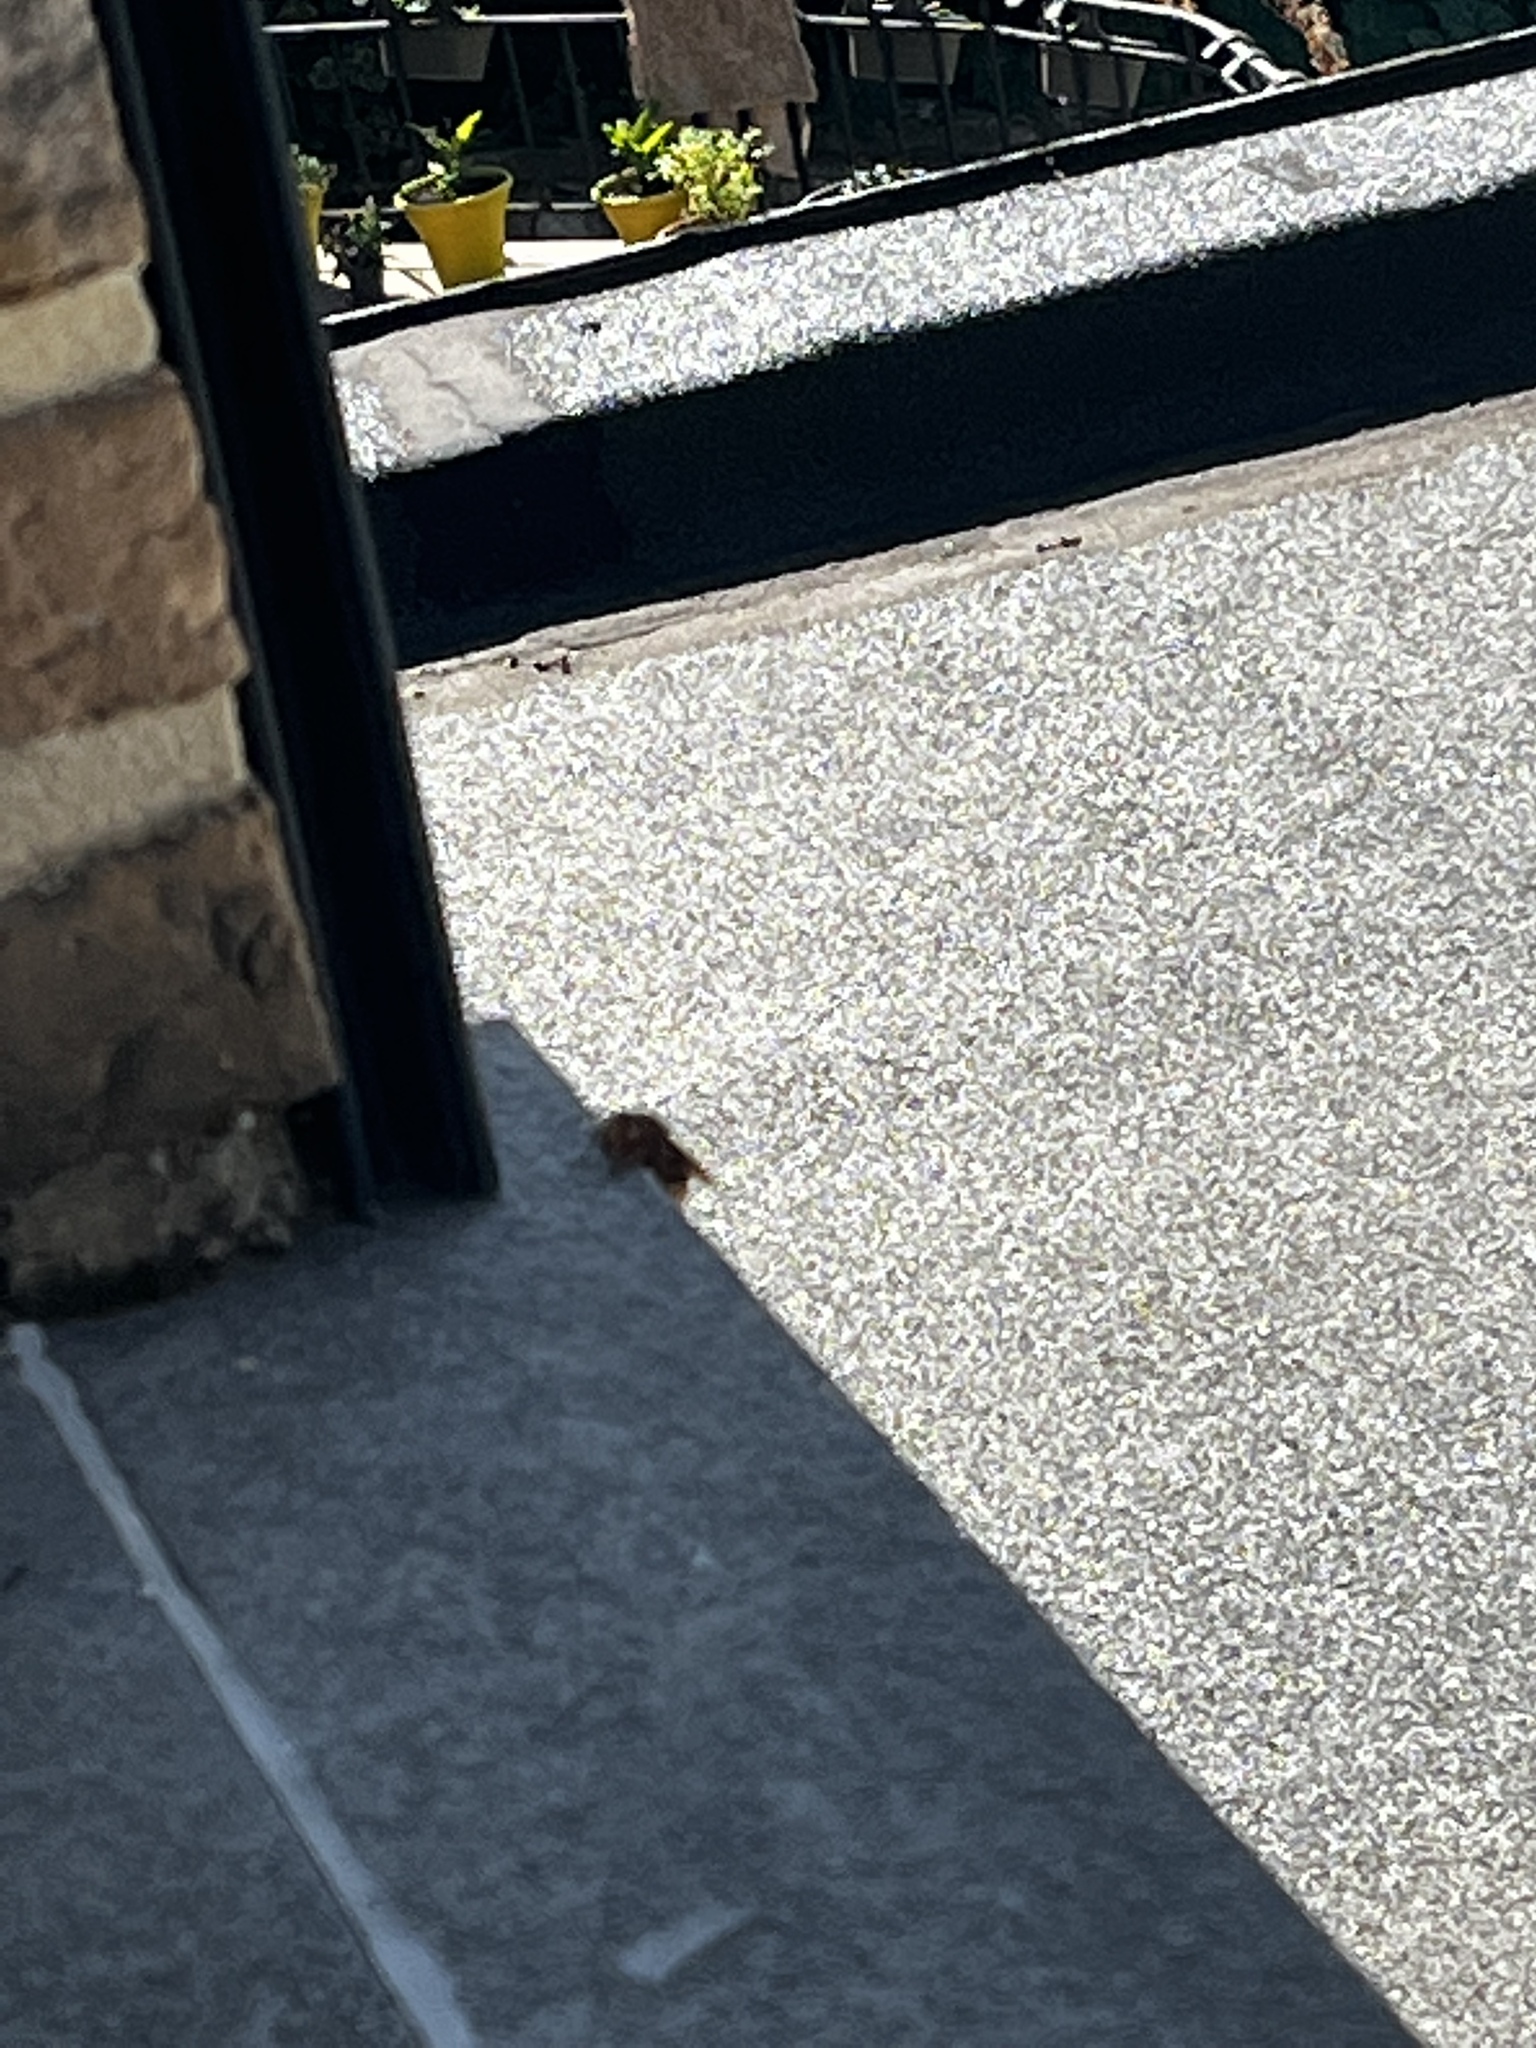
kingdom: Animalia
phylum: Arthropoda
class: Insecta
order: Hymenoptera
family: Vespidae
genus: Vespa
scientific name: Vespa crabro
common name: Hornet
